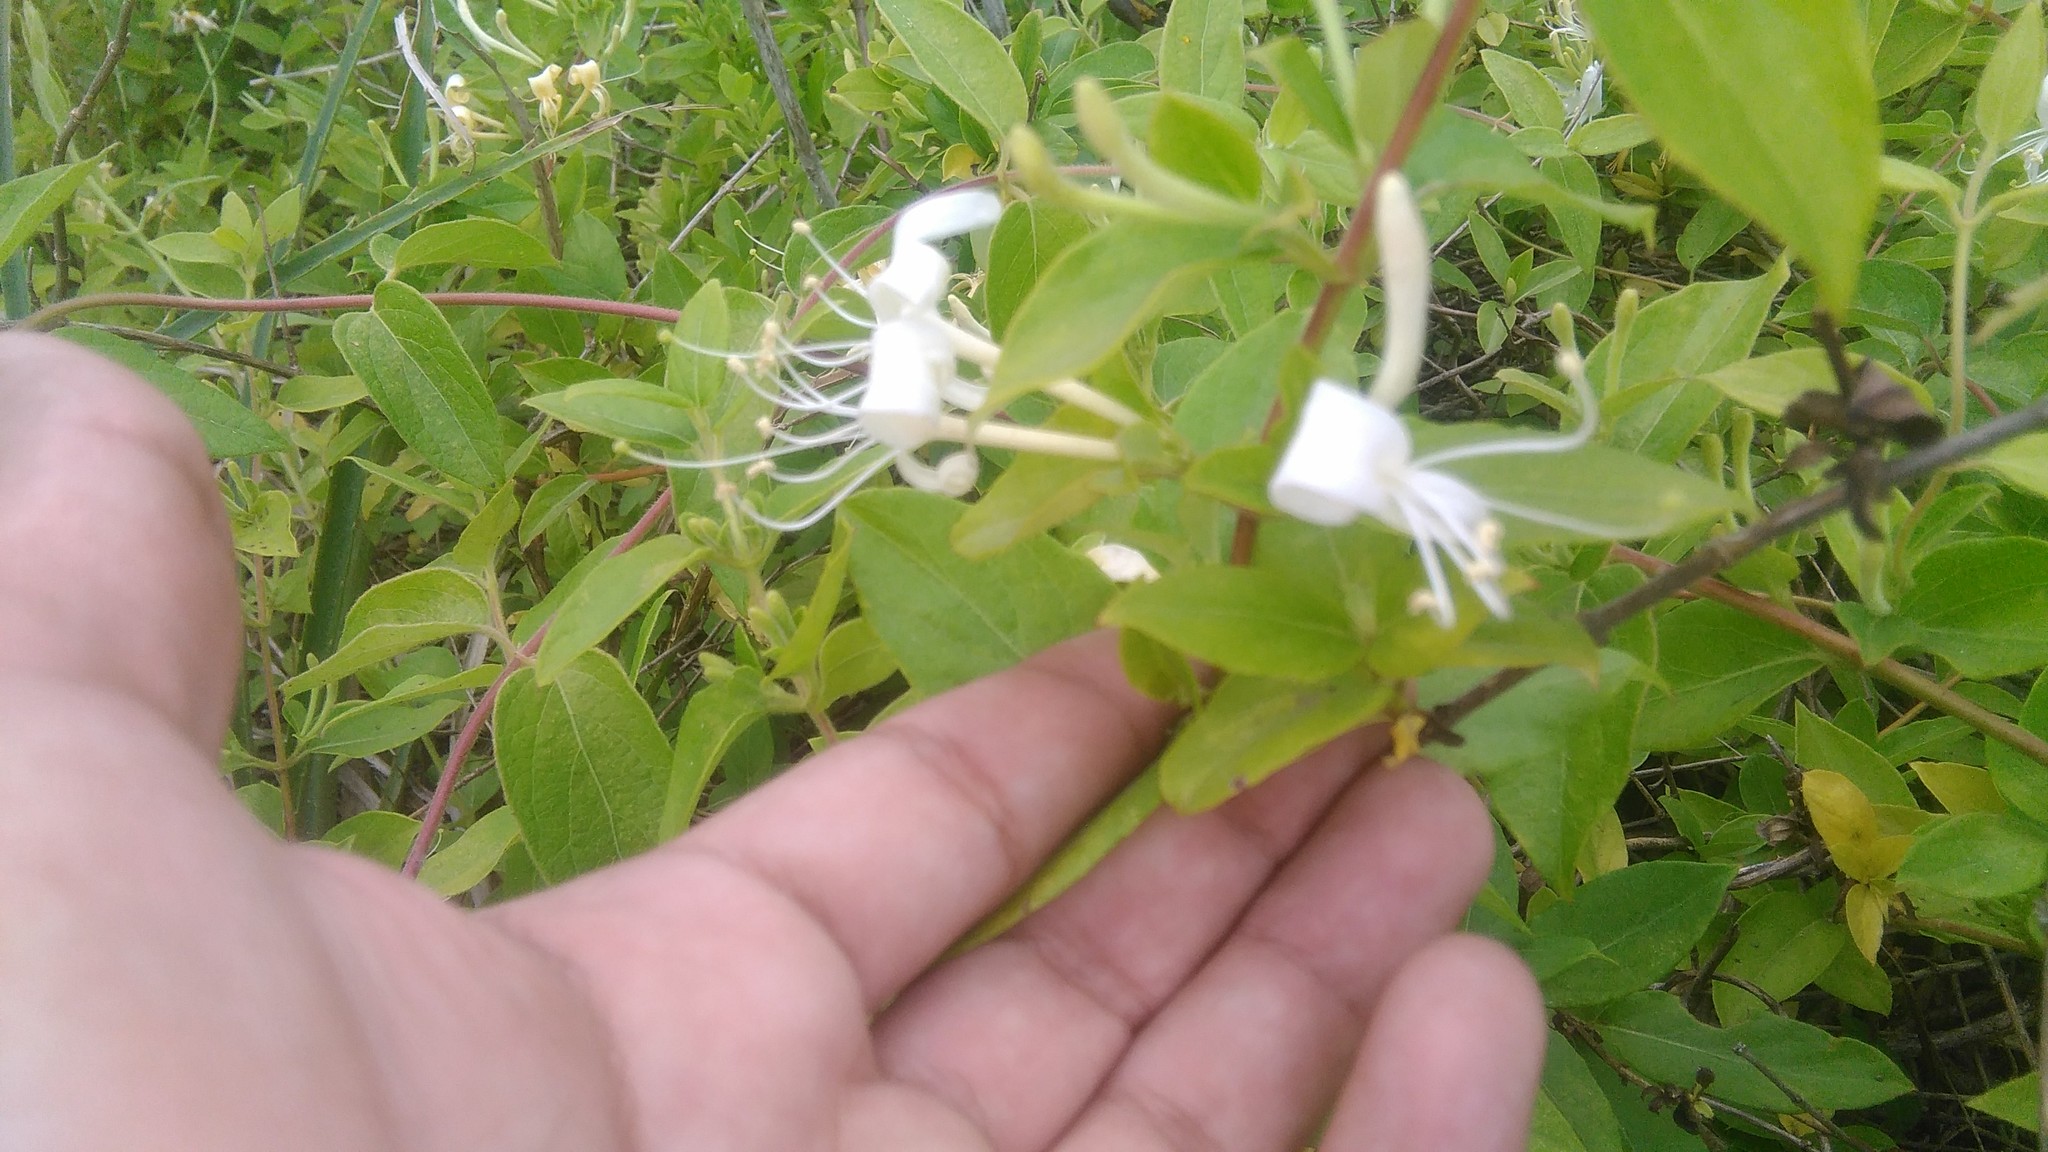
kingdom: Plantae
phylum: Tracheophyta
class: Magnoliopsida
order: Dipsacales
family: Caprifoliaceae
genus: Lonicera
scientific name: Lonicera japonica
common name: Japanese honeysuckle
